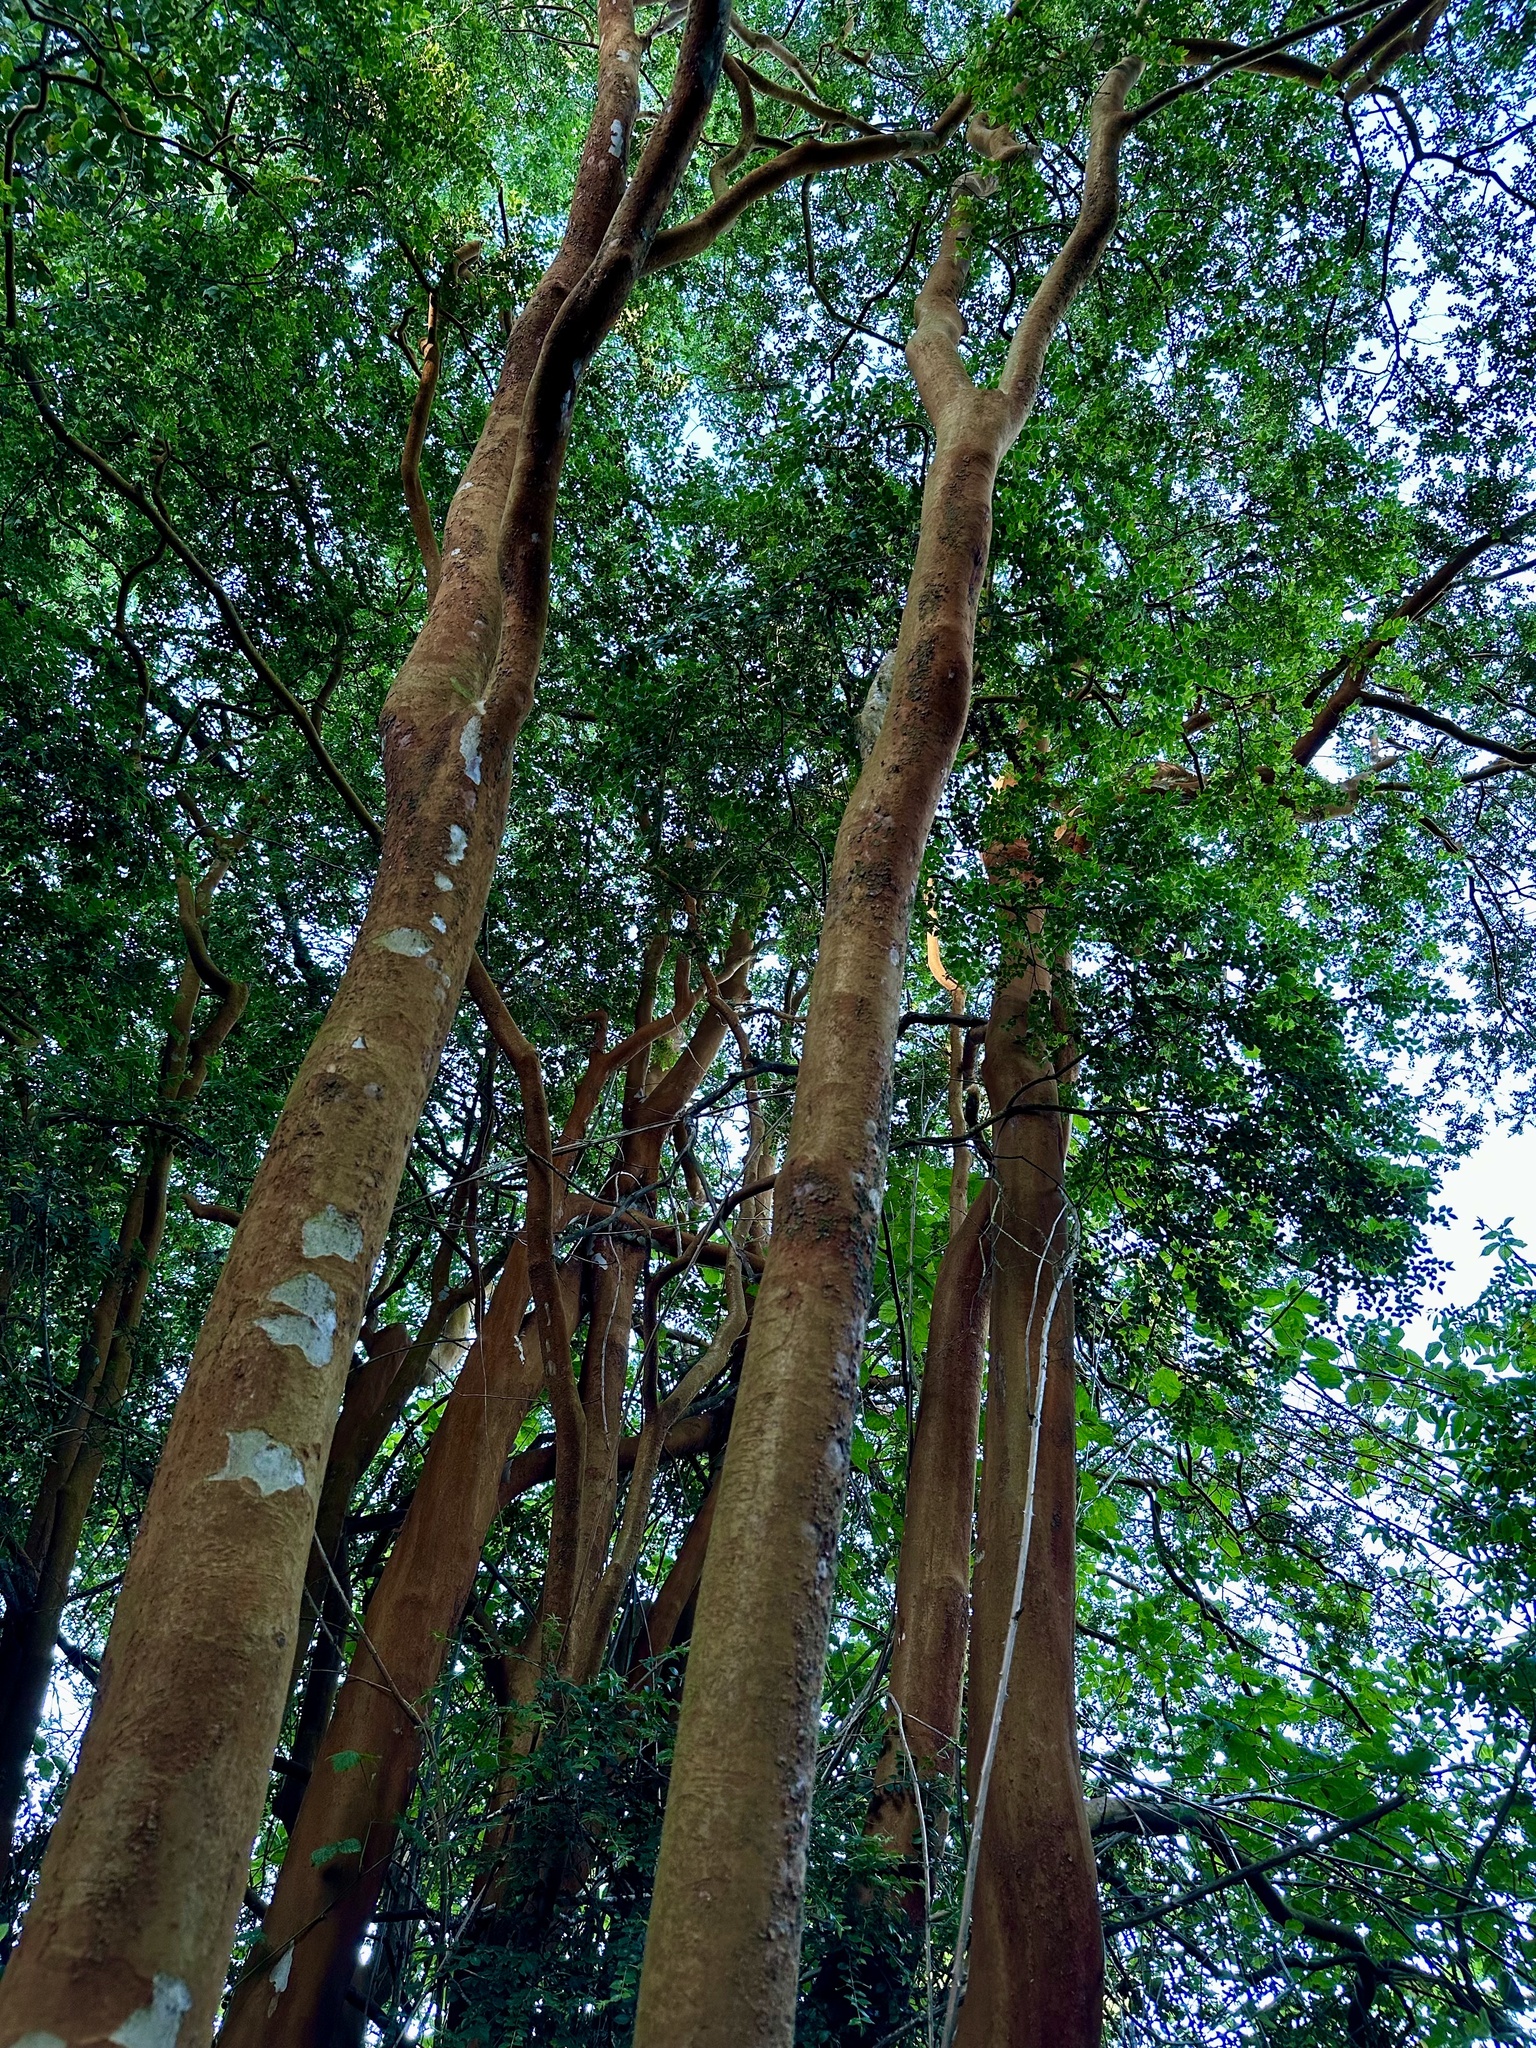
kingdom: Plantae
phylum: Tracheophyta
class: Magnoliopsida
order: Myrtales
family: Myrtaceae
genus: Luma
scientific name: Luma apiculata
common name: Chilean myrtle
